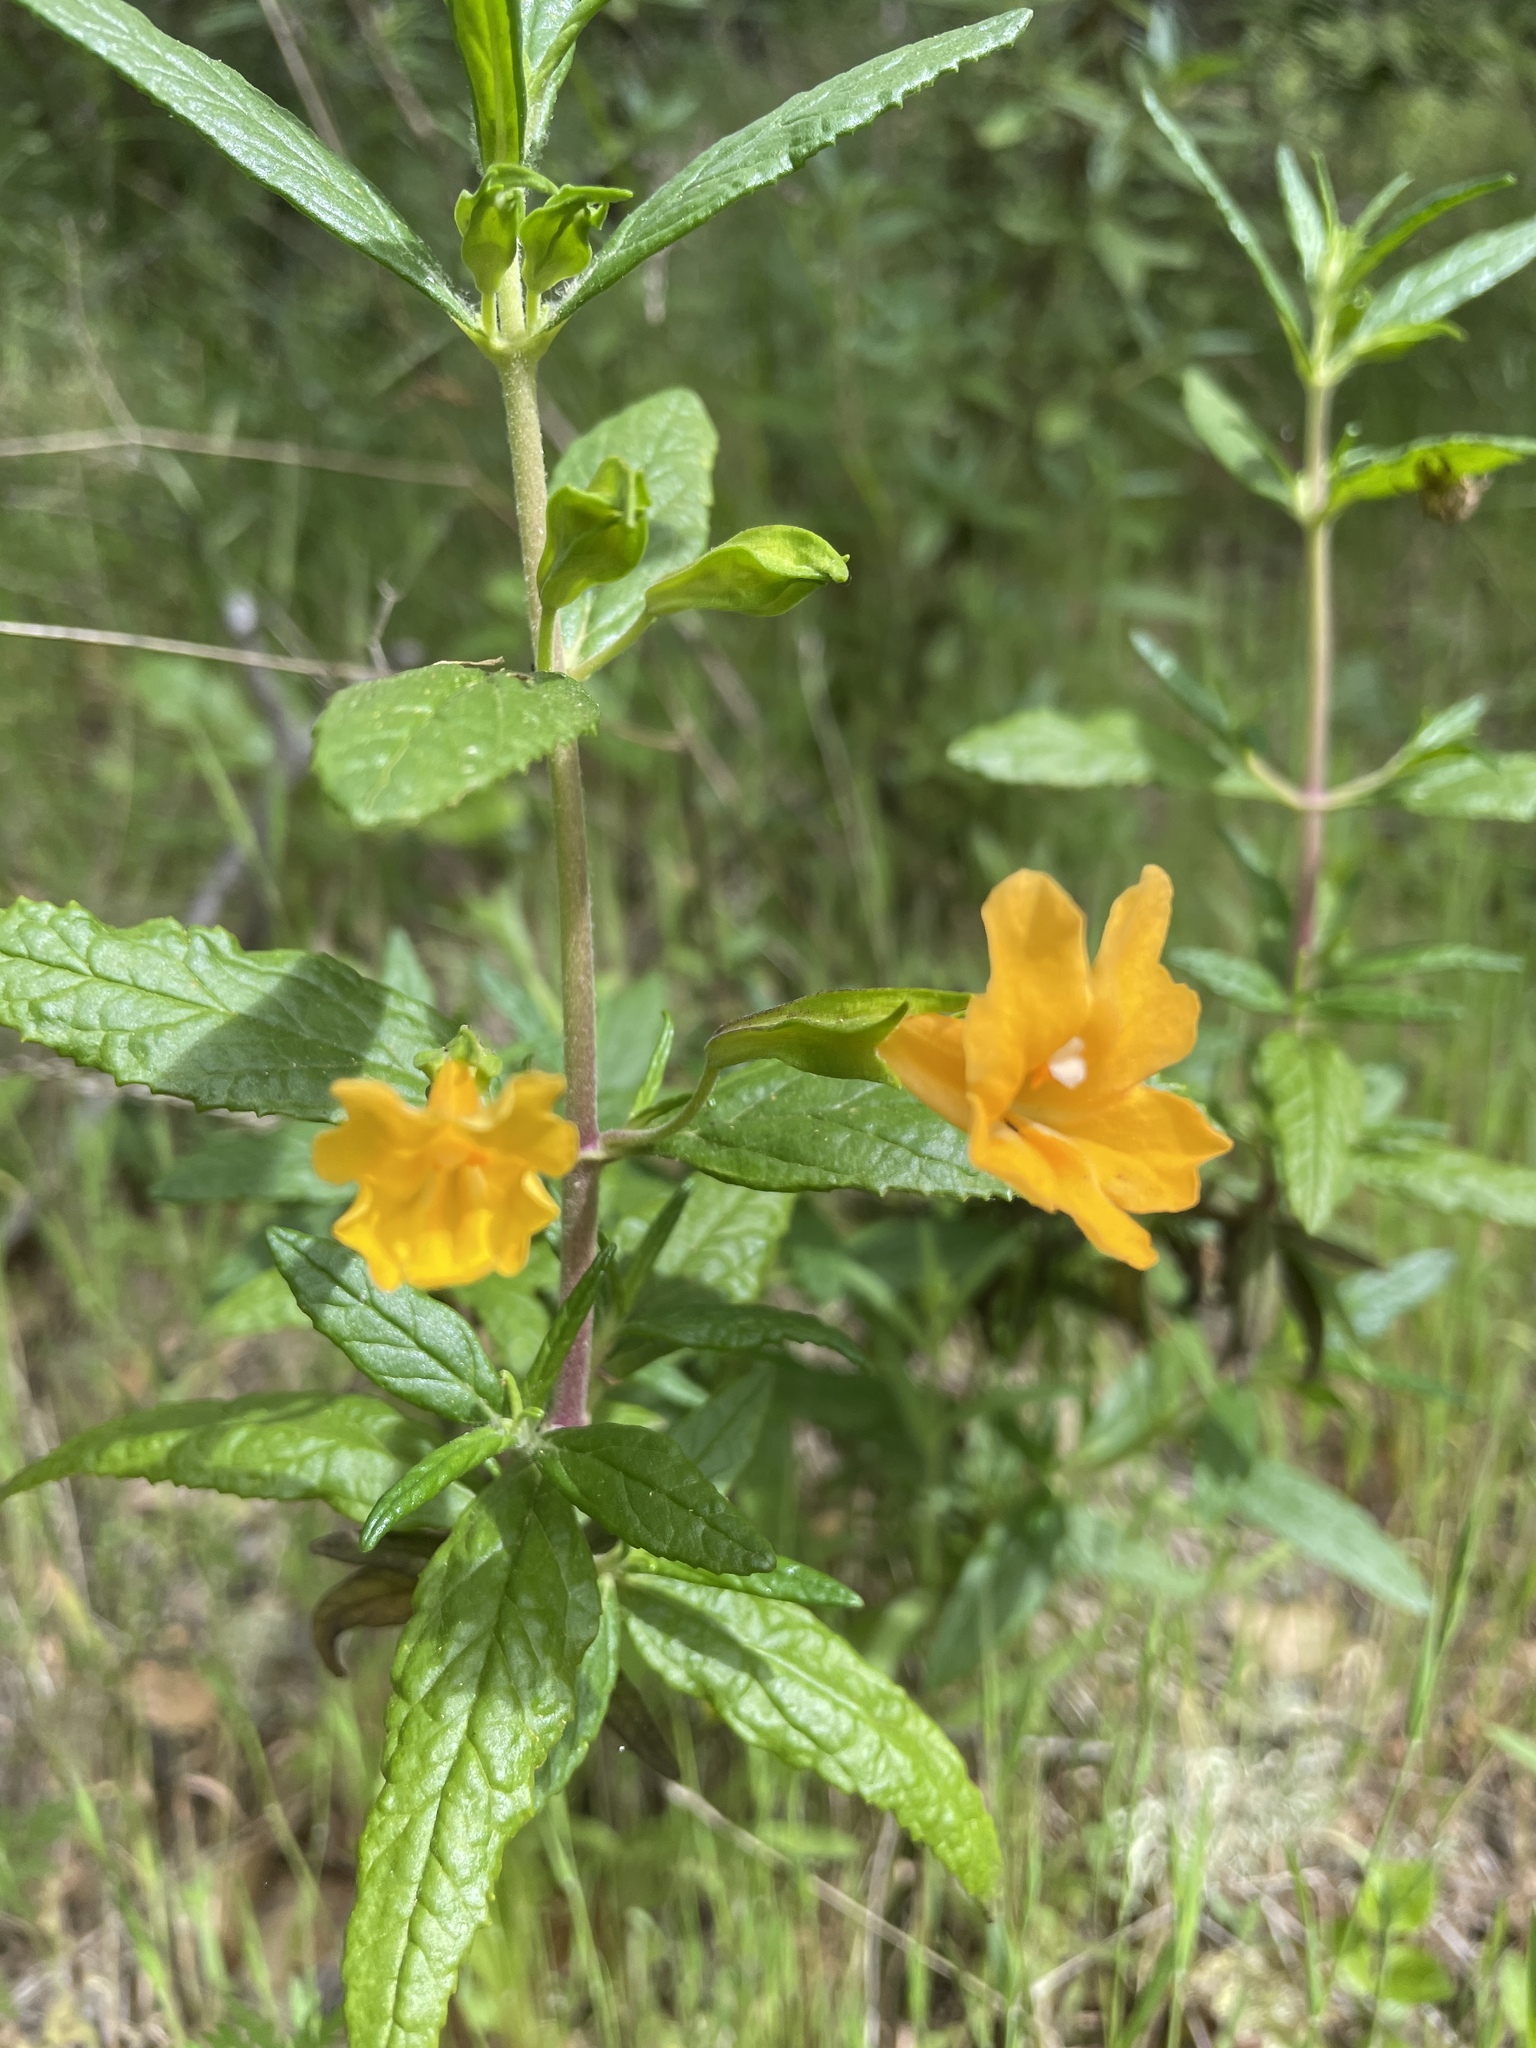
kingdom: Plantae
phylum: Tracheophyta
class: Magnoliopsida
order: Lamiales
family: Phrymaceae
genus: Diplacus
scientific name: Diplacus aurantiacus
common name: Bush monkey-flower
